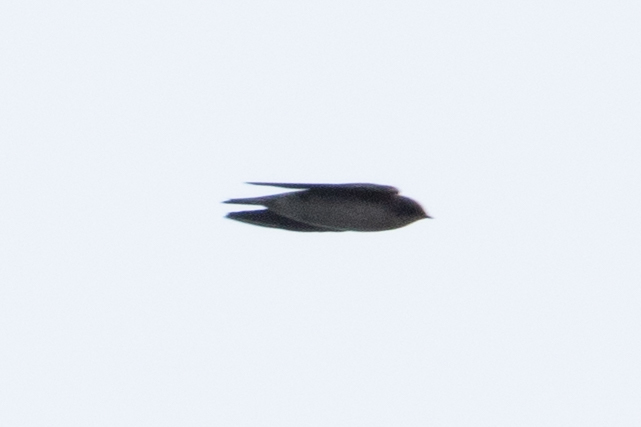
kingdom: Animalia
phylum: Chordata
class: Aves
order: Passeriformes
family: Hirundinidae
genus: Tachycineta
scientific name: Tachycineta bicolor
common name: Tree swallow
